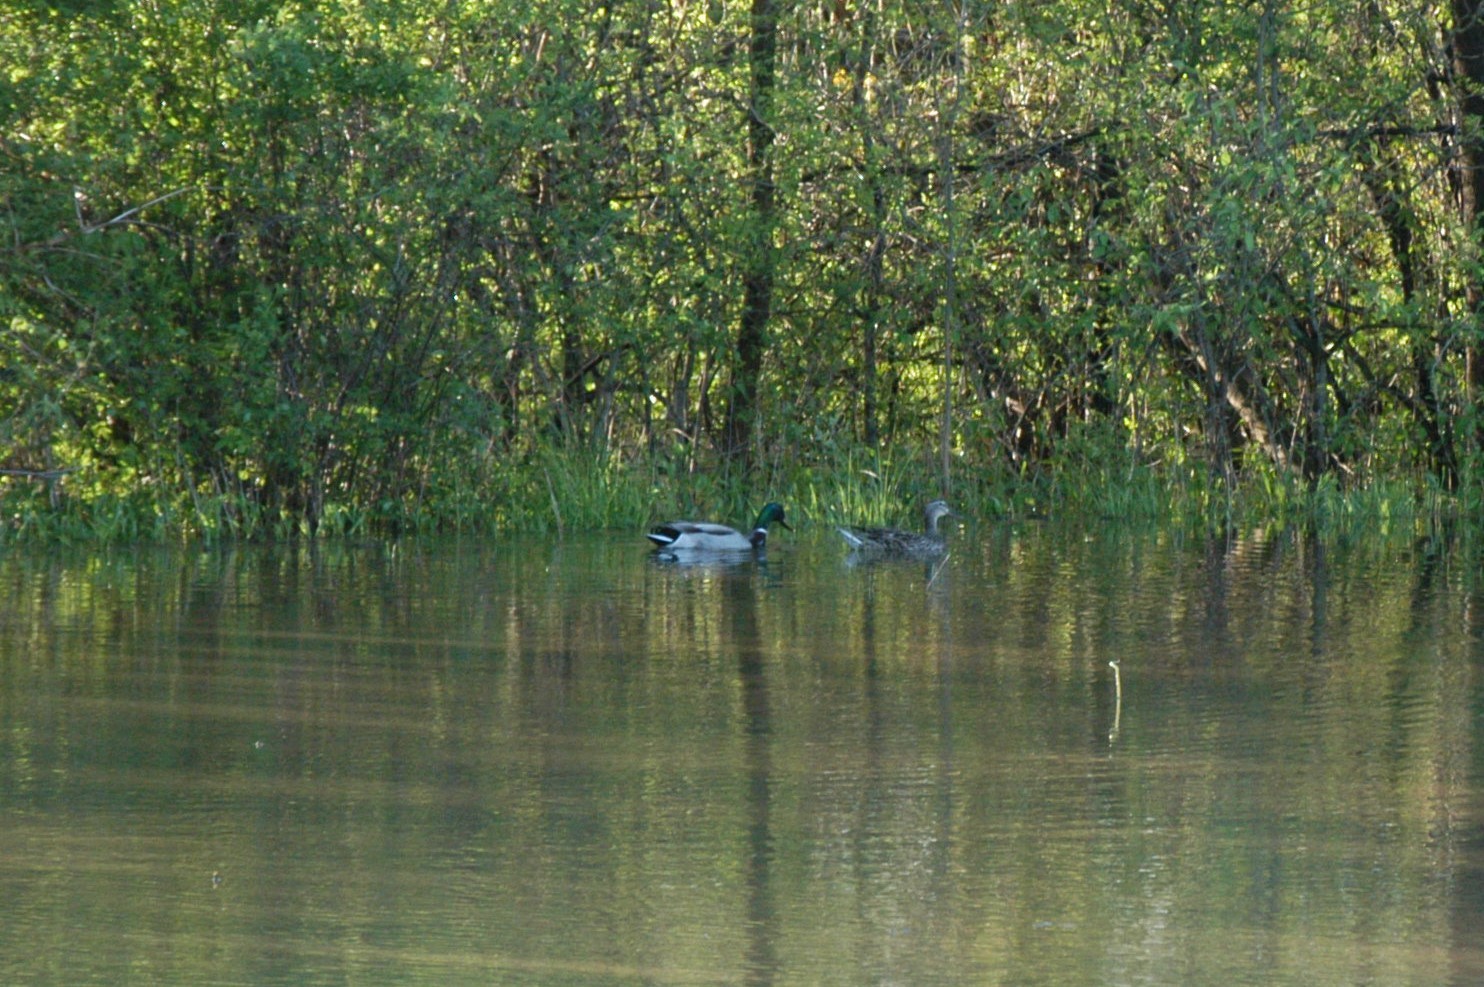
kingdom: Animalia
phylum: Chordata
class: Aves
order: Anseriformes
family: Anatidae
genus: Anas
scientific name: Anas platyrhynchos
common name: Mallard
